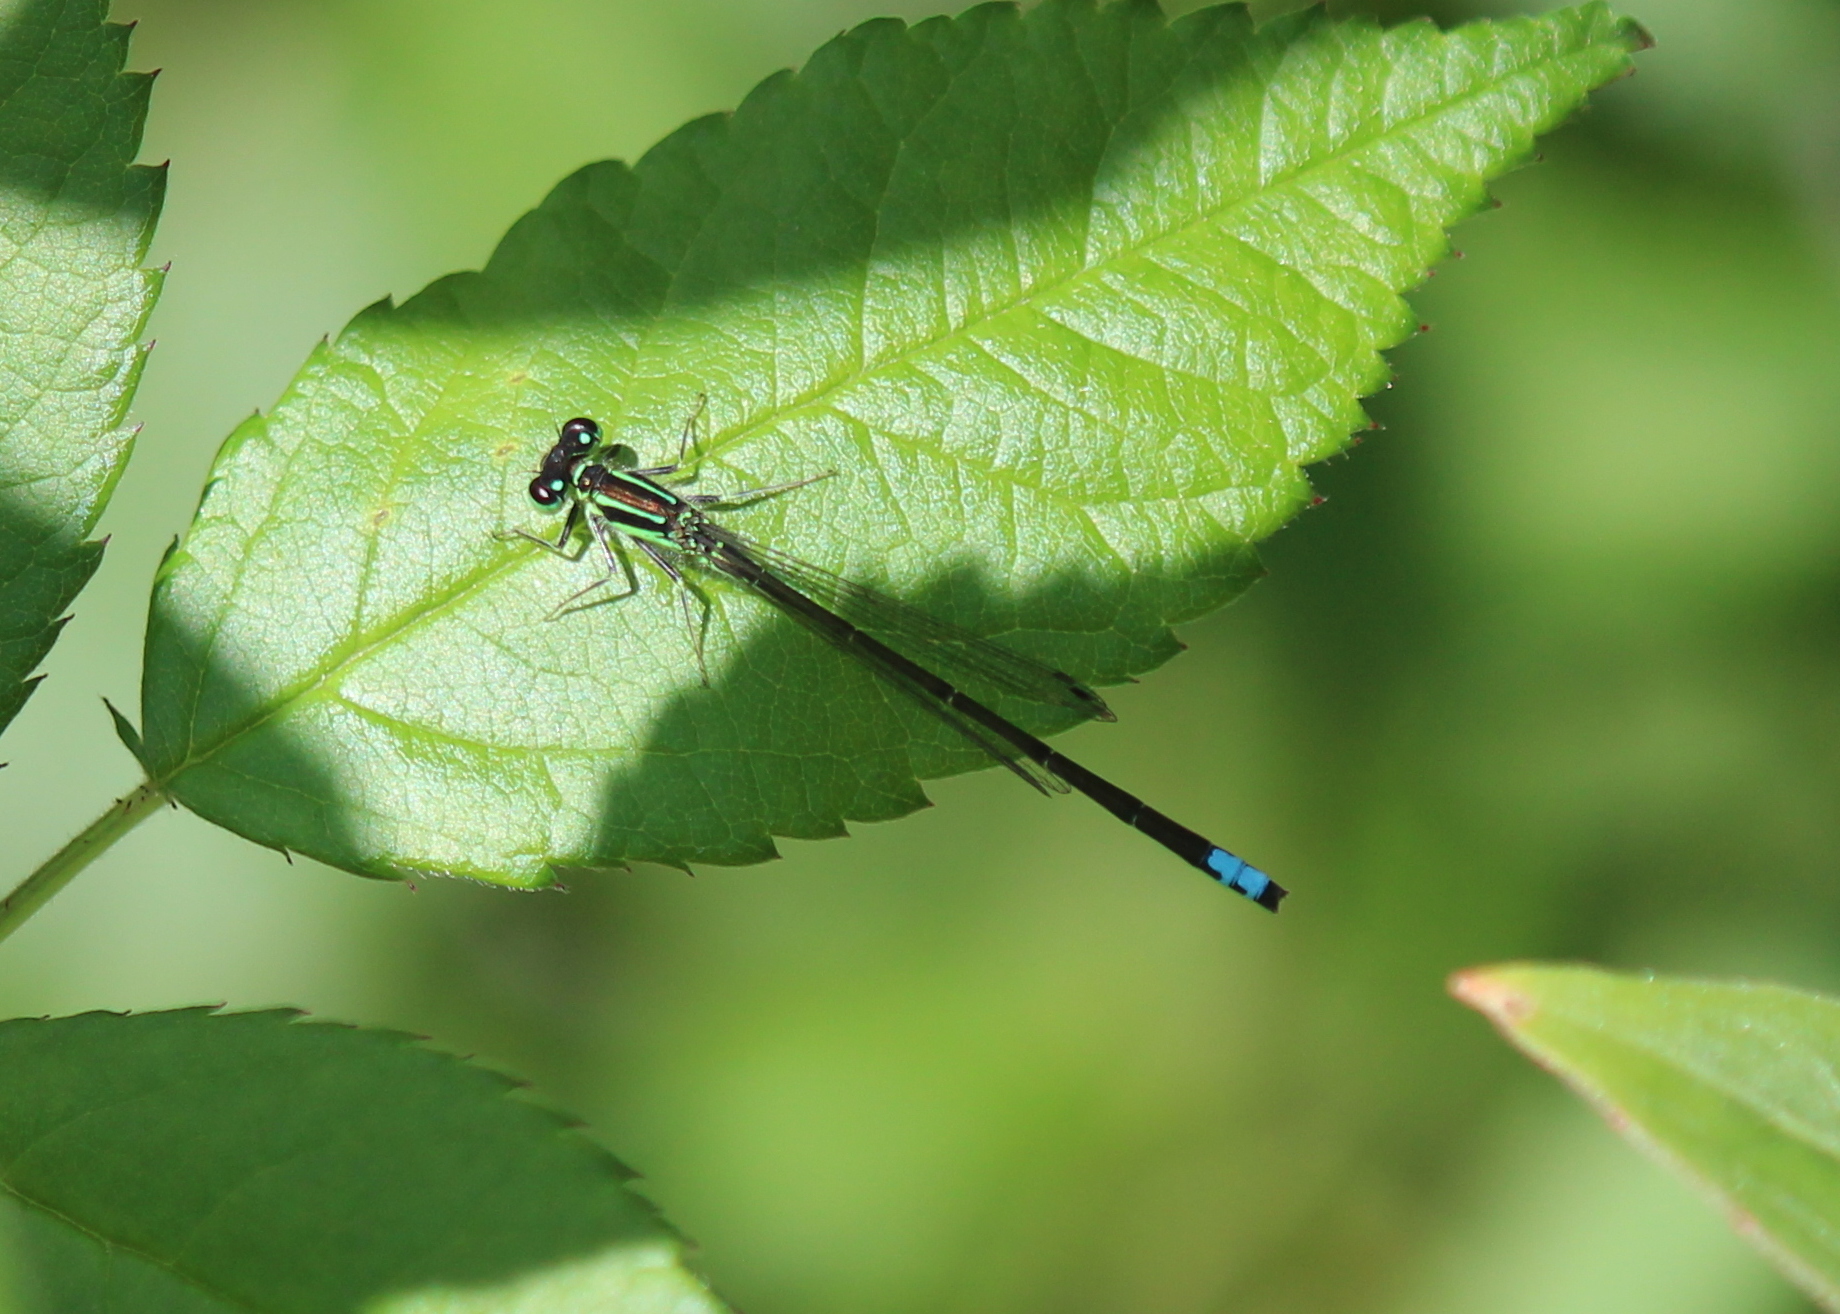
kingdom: Animalia
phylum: Arthropoda
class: Insecta
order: Odonata
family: Coenagrionidae
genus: Ischnura
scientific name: Ischnura verticalis
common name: Eastern forktail
